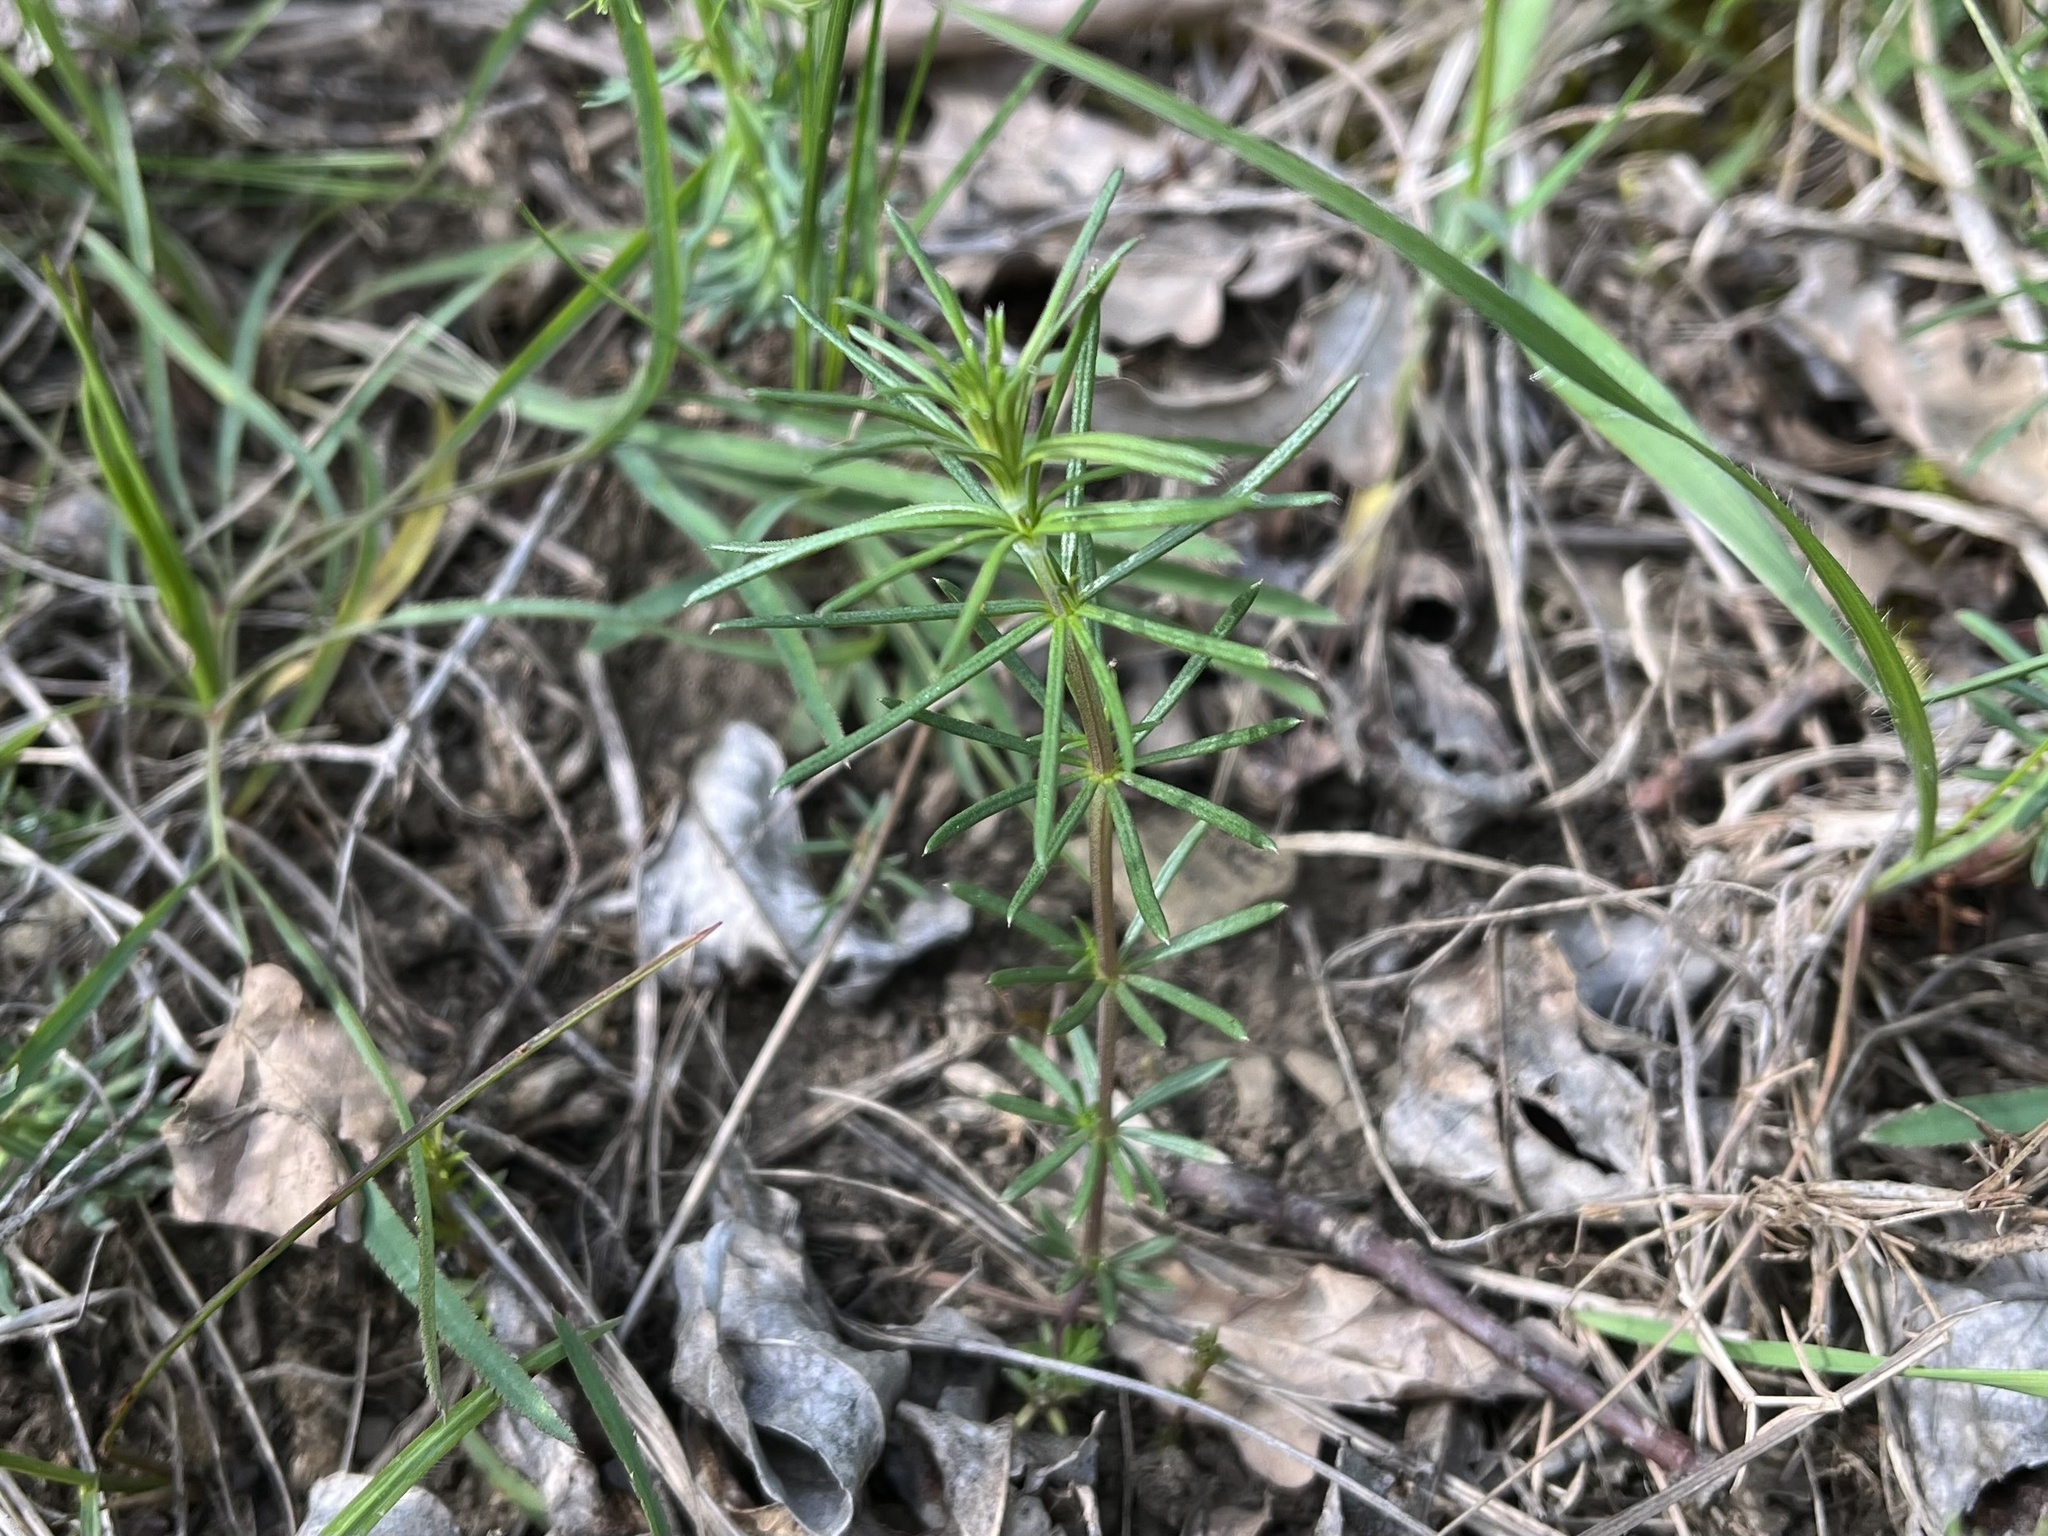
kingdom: Plantae
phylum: Tracheophyta
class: Magnoliopsida
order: Gentianales
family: Rubiaceae
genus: Galium
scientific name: Galium verum
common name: Lady's bedstraw
